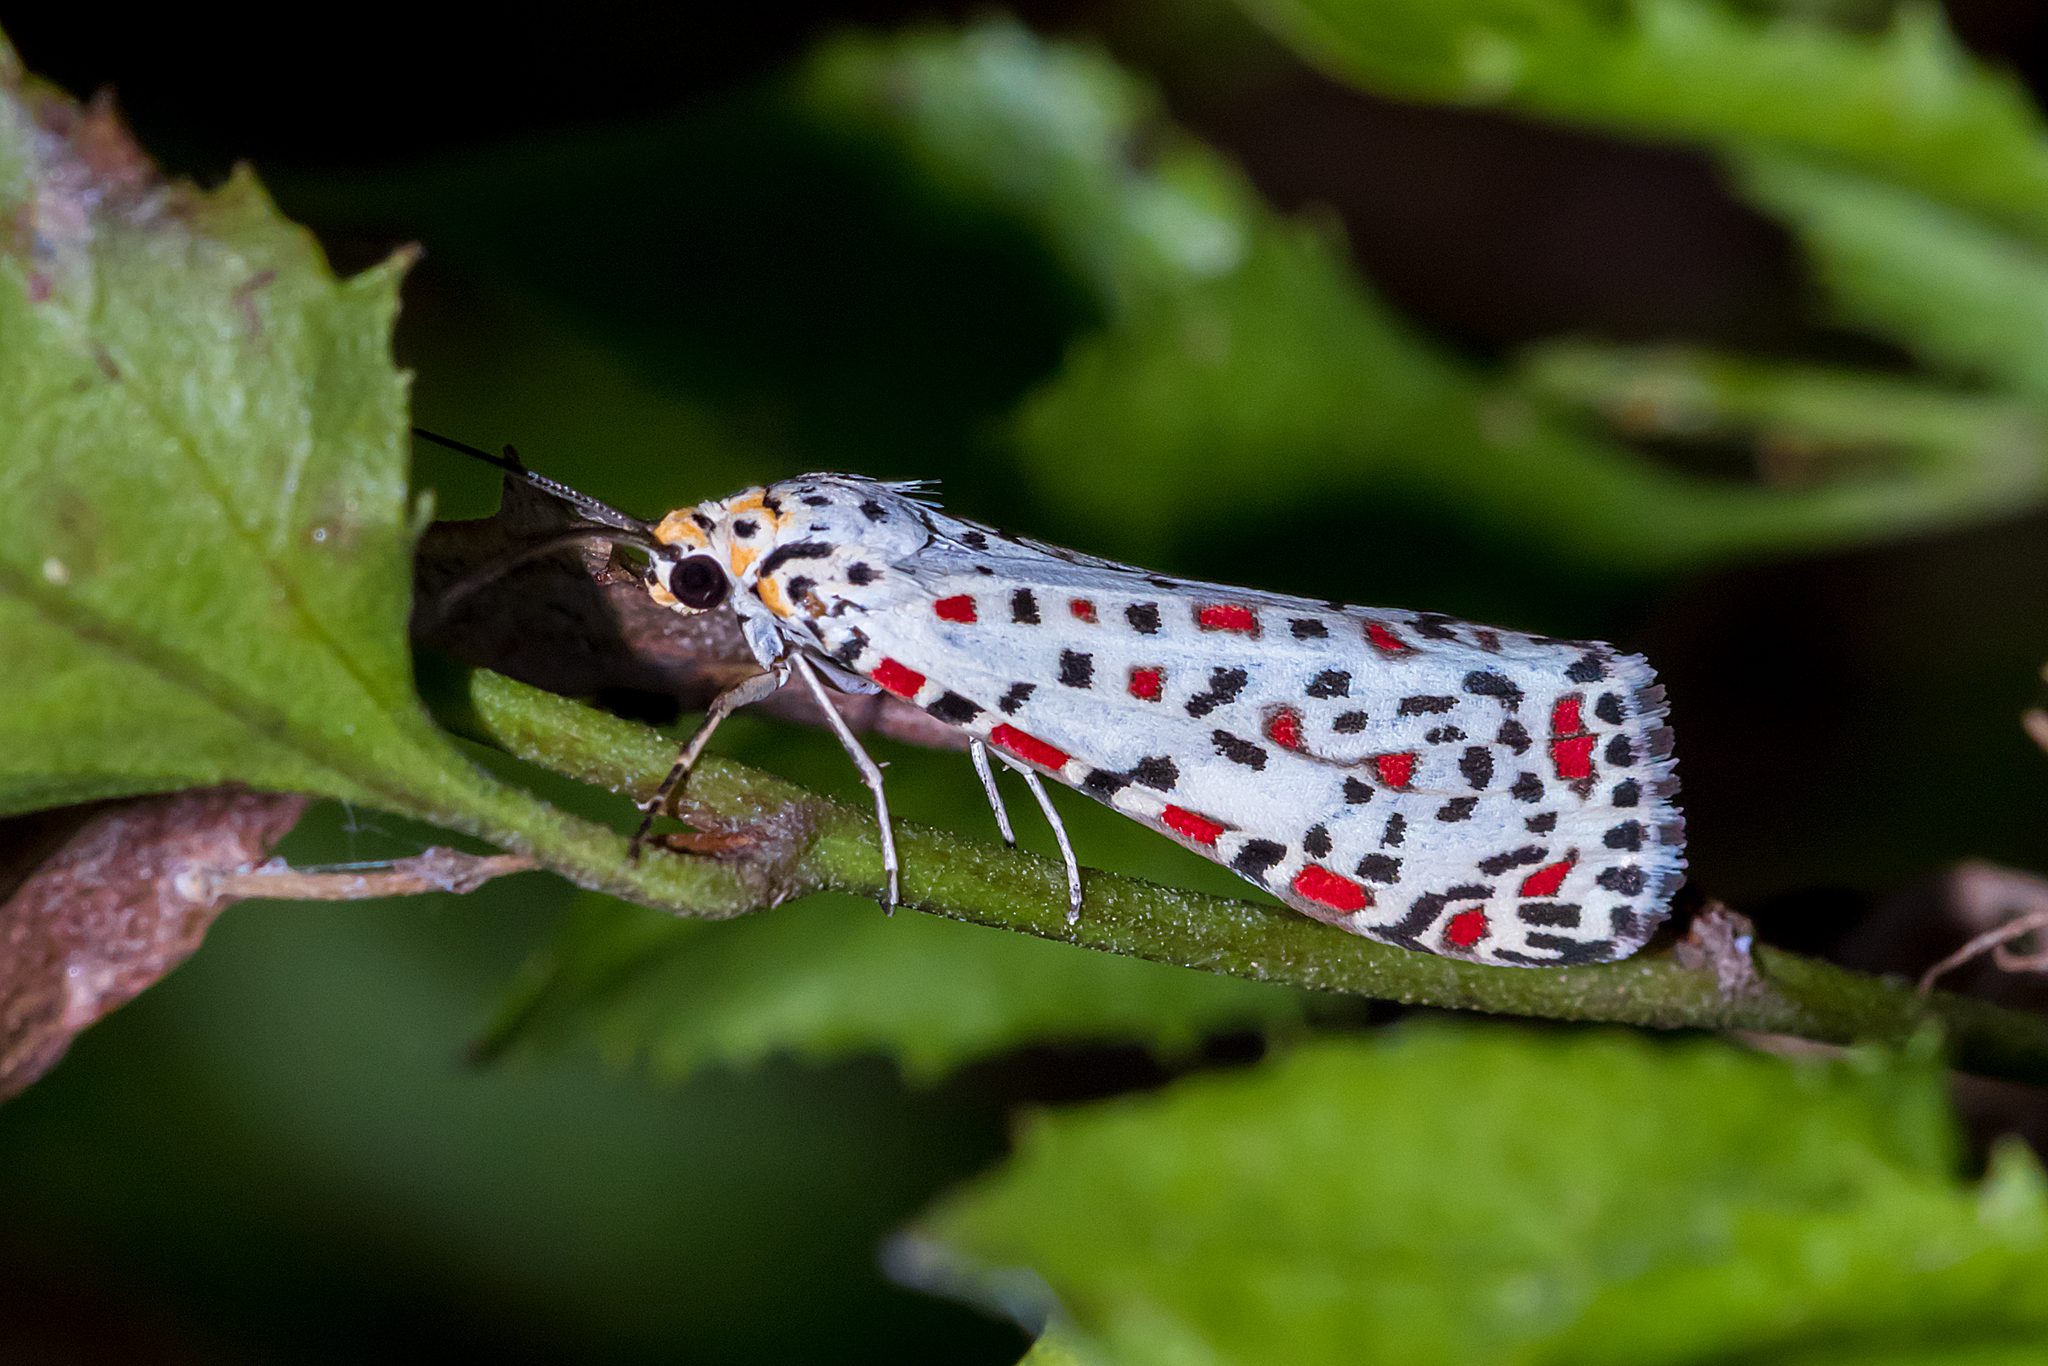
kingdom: Animalia
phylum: Arthropoda
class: Insecta
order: Lepidoptera
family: Erebidae
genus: Utetheisa
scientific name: Utetheisa pulchelloides
